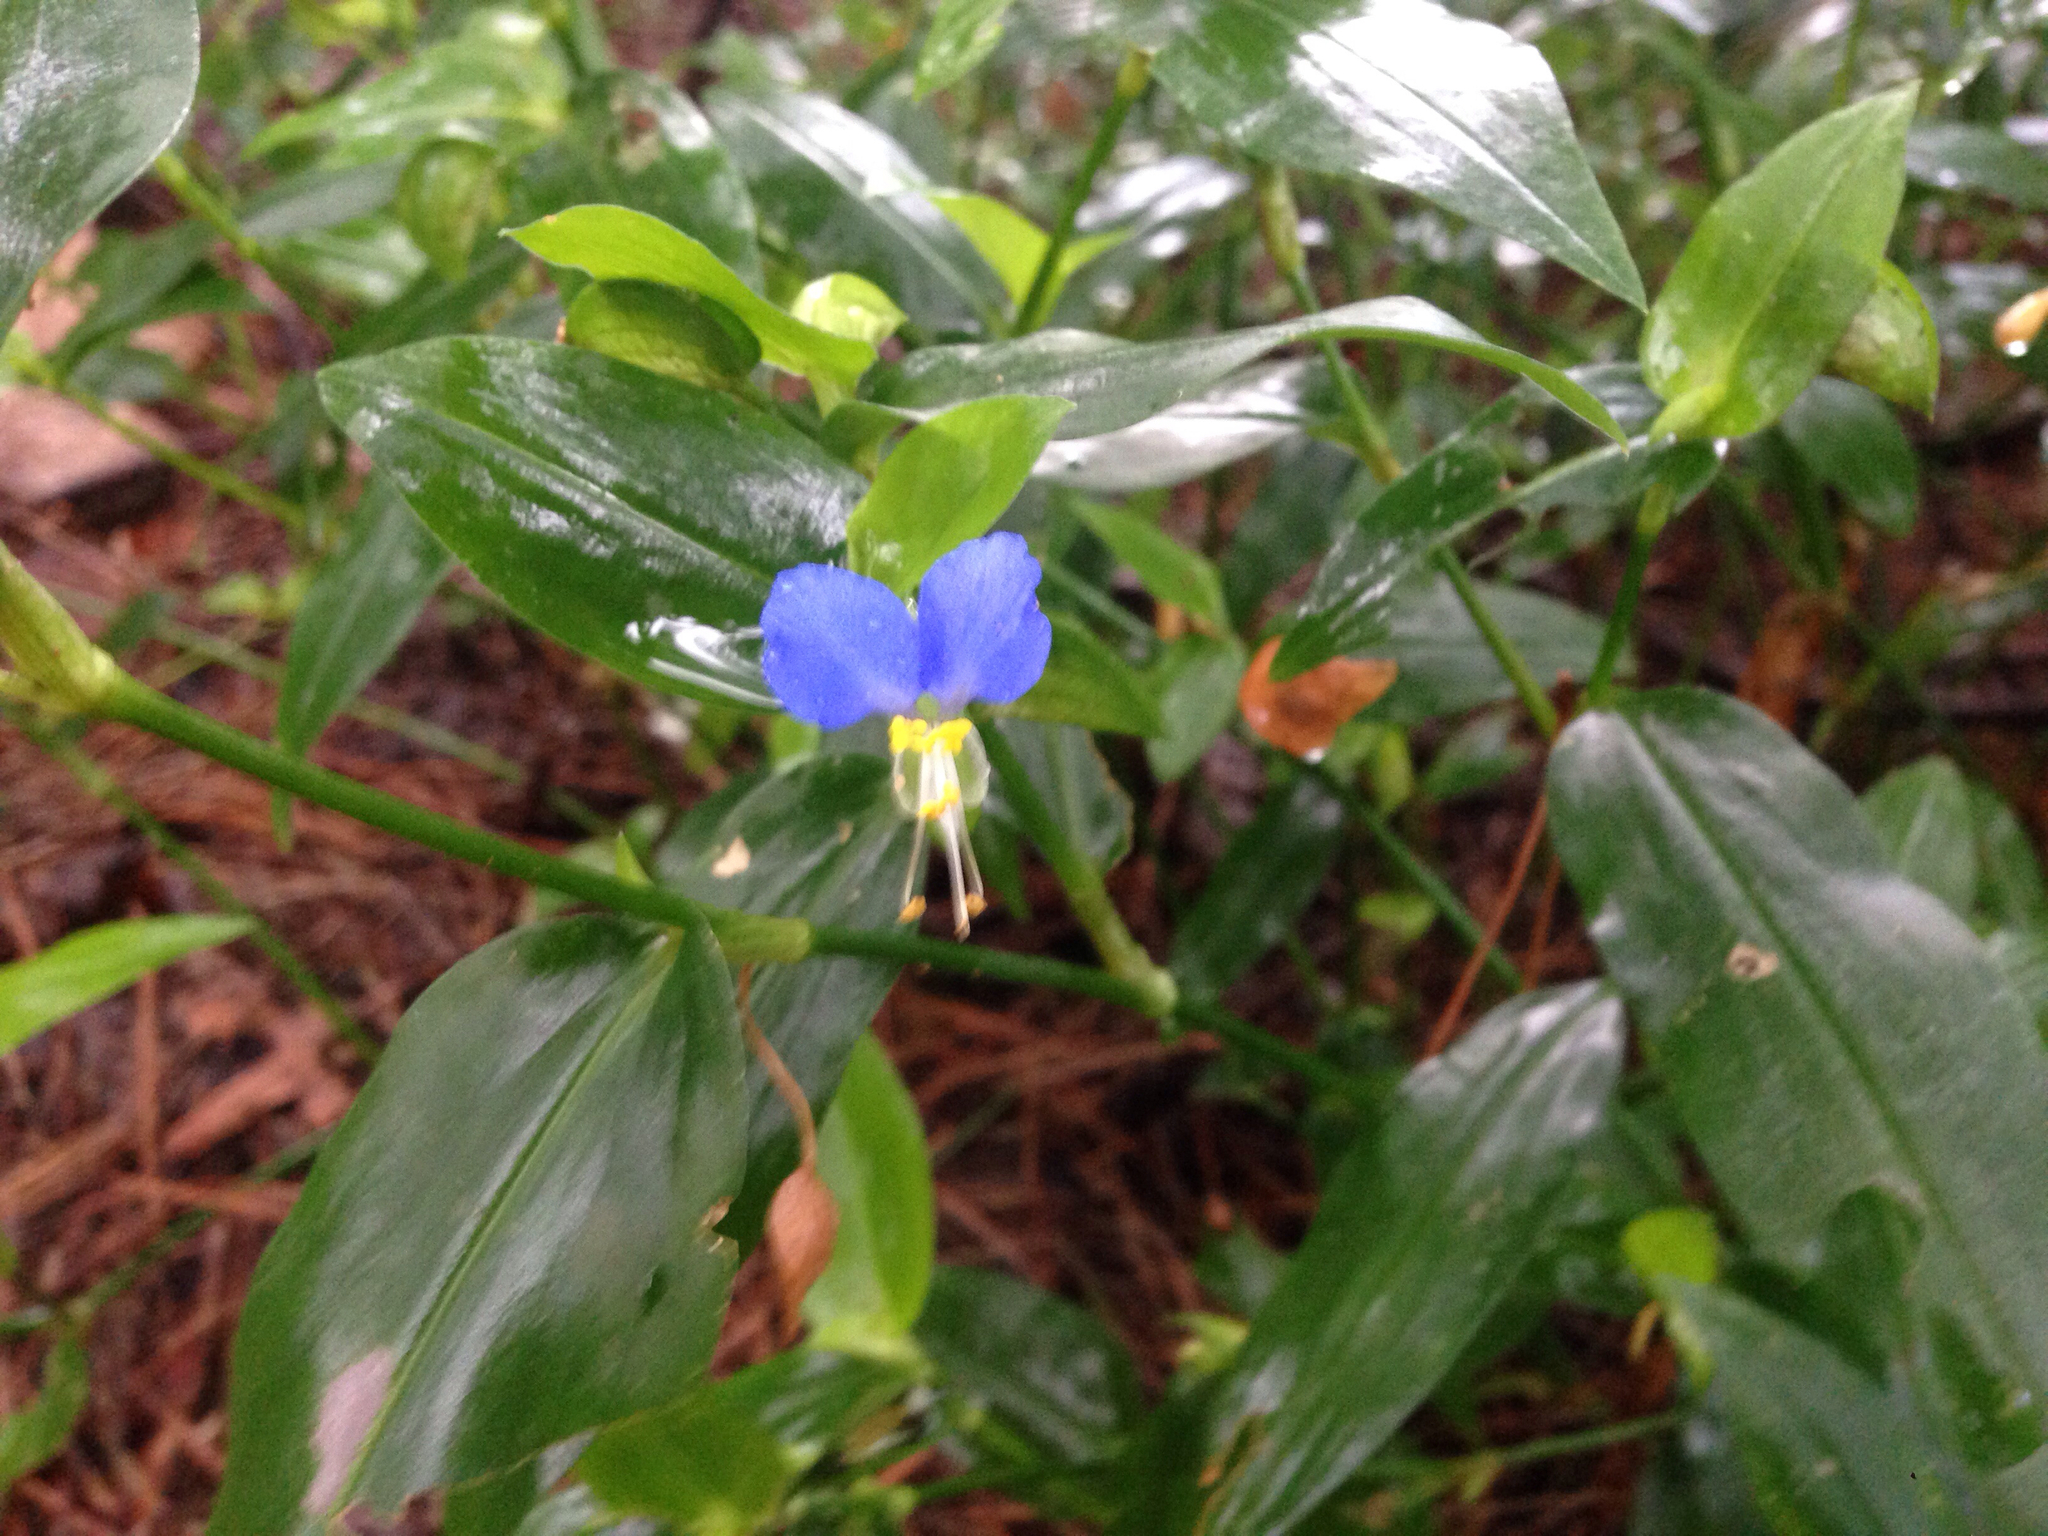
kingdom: Plantae
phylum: Tracheophyta
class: Liliopsida
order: Commelinales
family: Commelinaceae
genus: Commelina
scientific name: Commelina communis
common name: Asiatic dayflower
